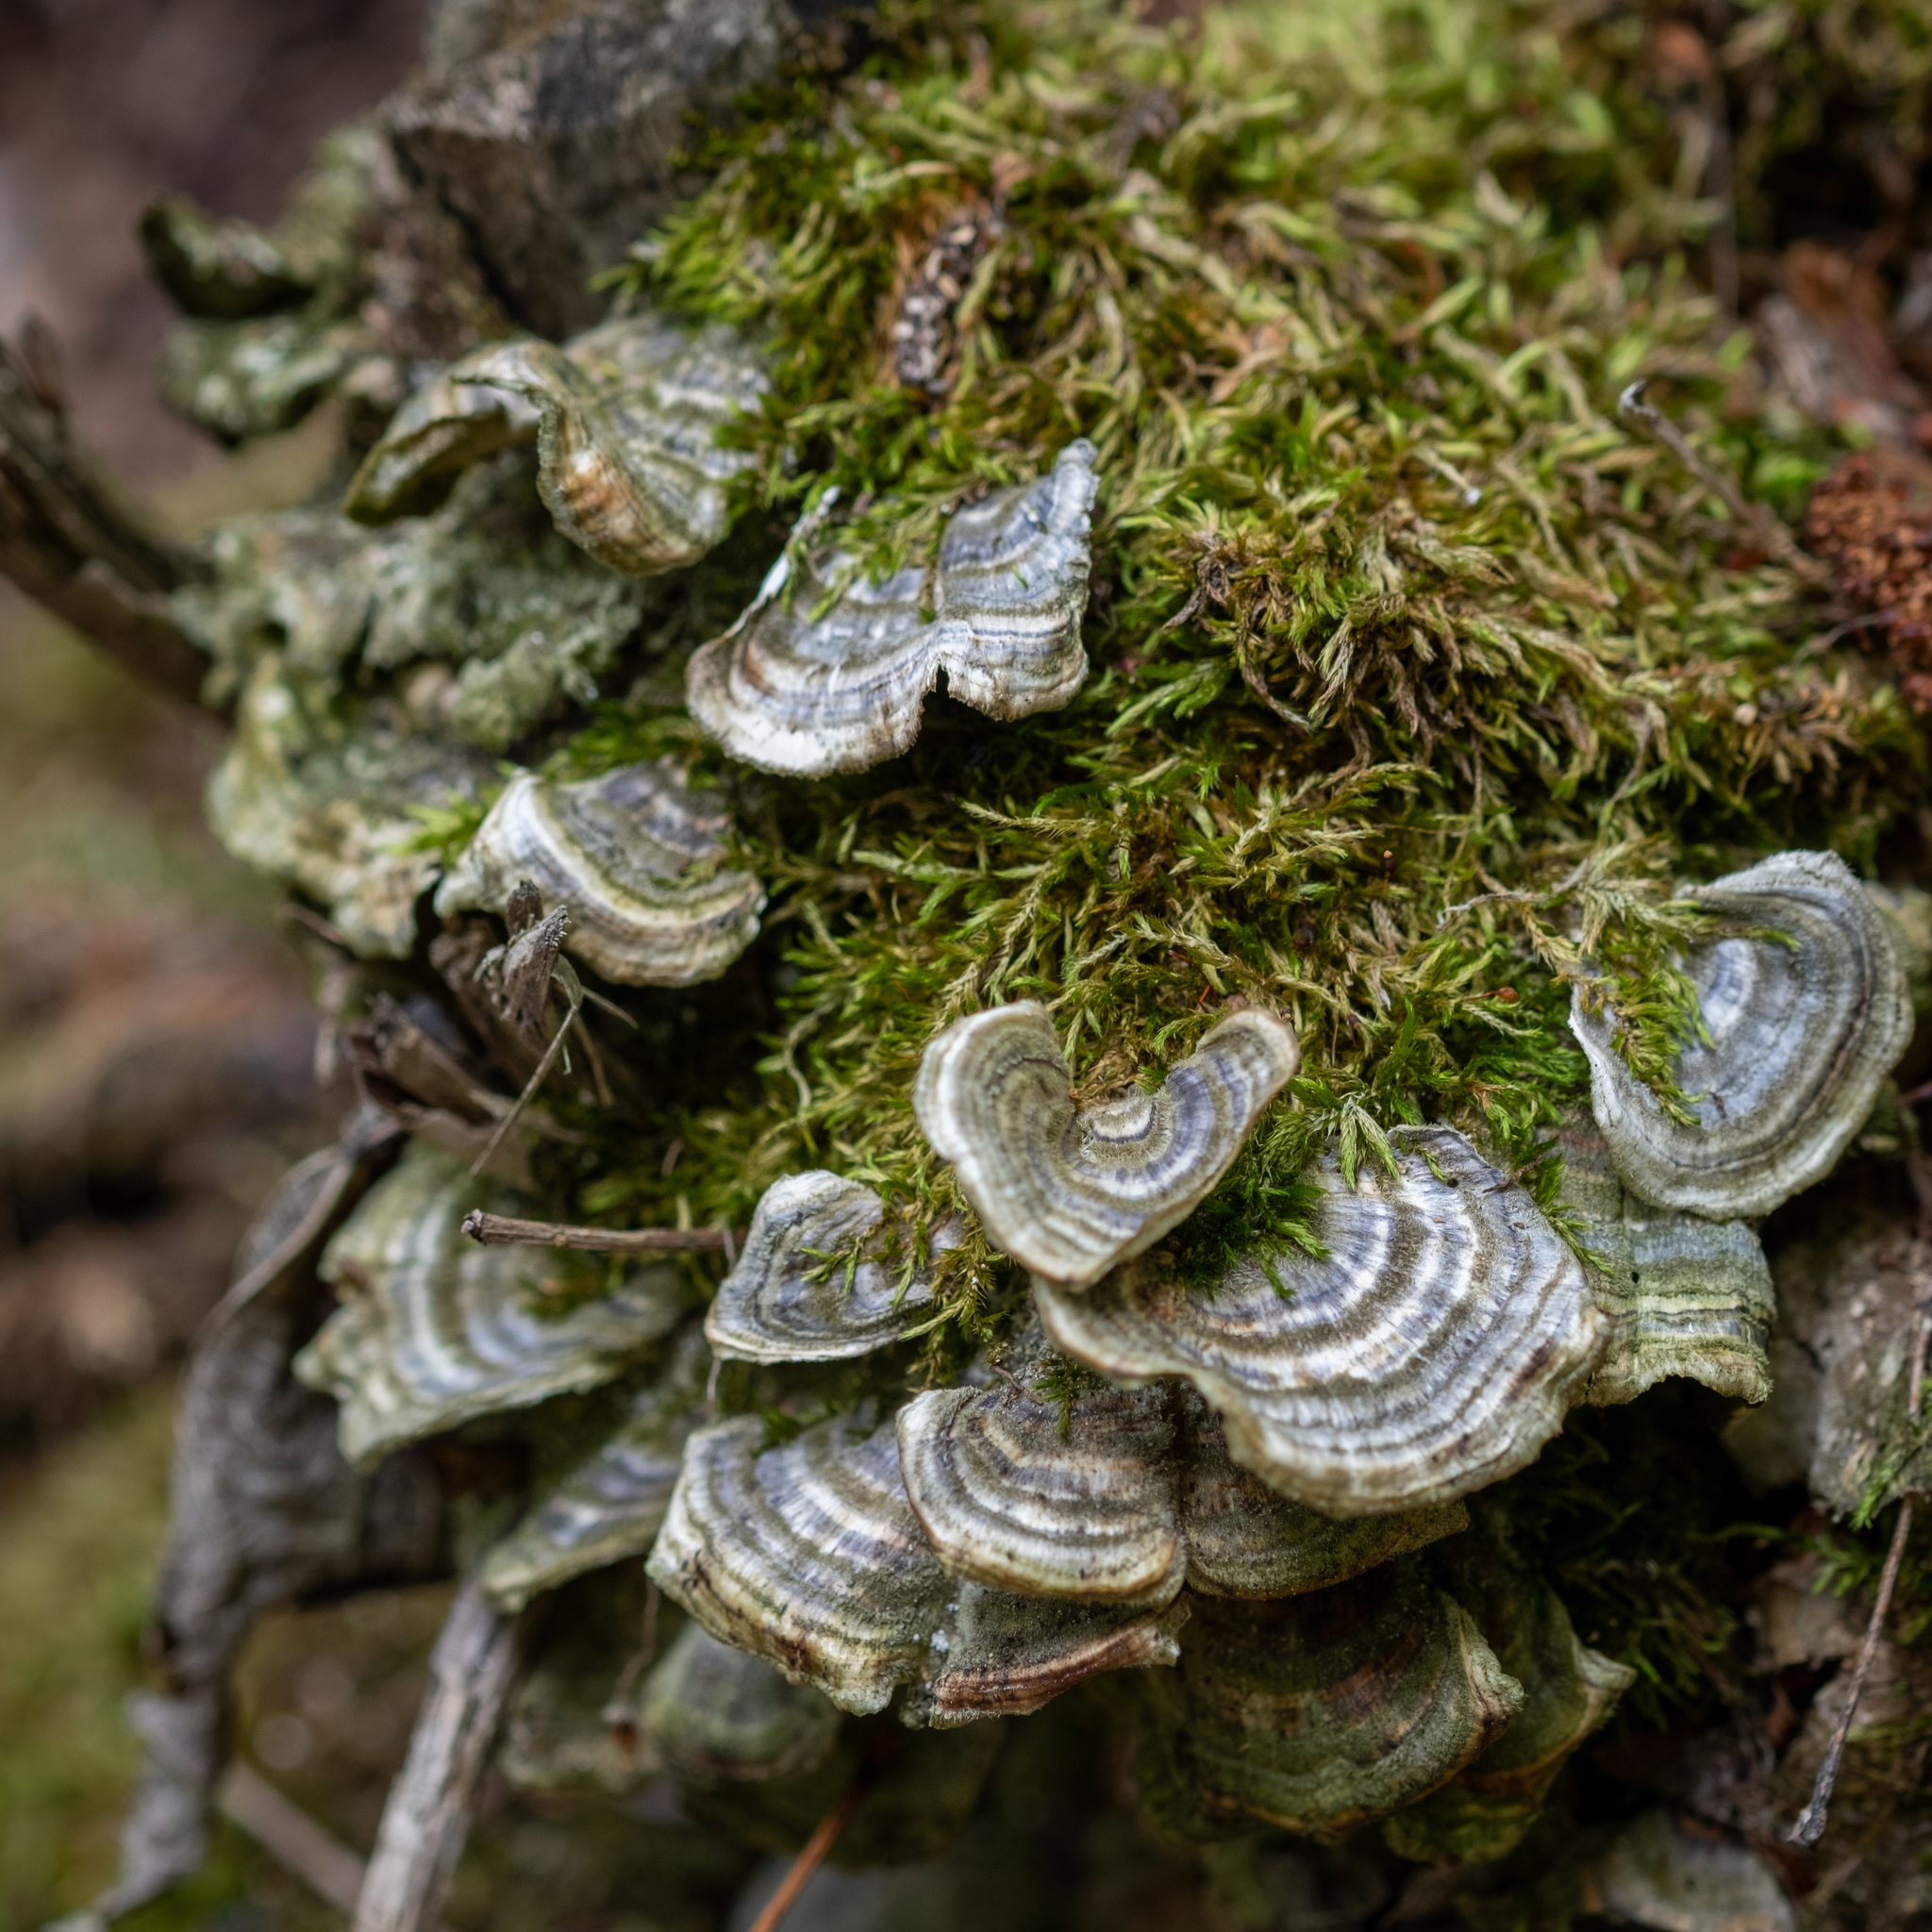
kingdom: Fungi
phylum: Basidiomycota
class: Agaricomycetes
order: Polyporales
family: Polyporaceae
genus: Trametes
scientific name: Trametes versicolor
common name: Turkeytail
